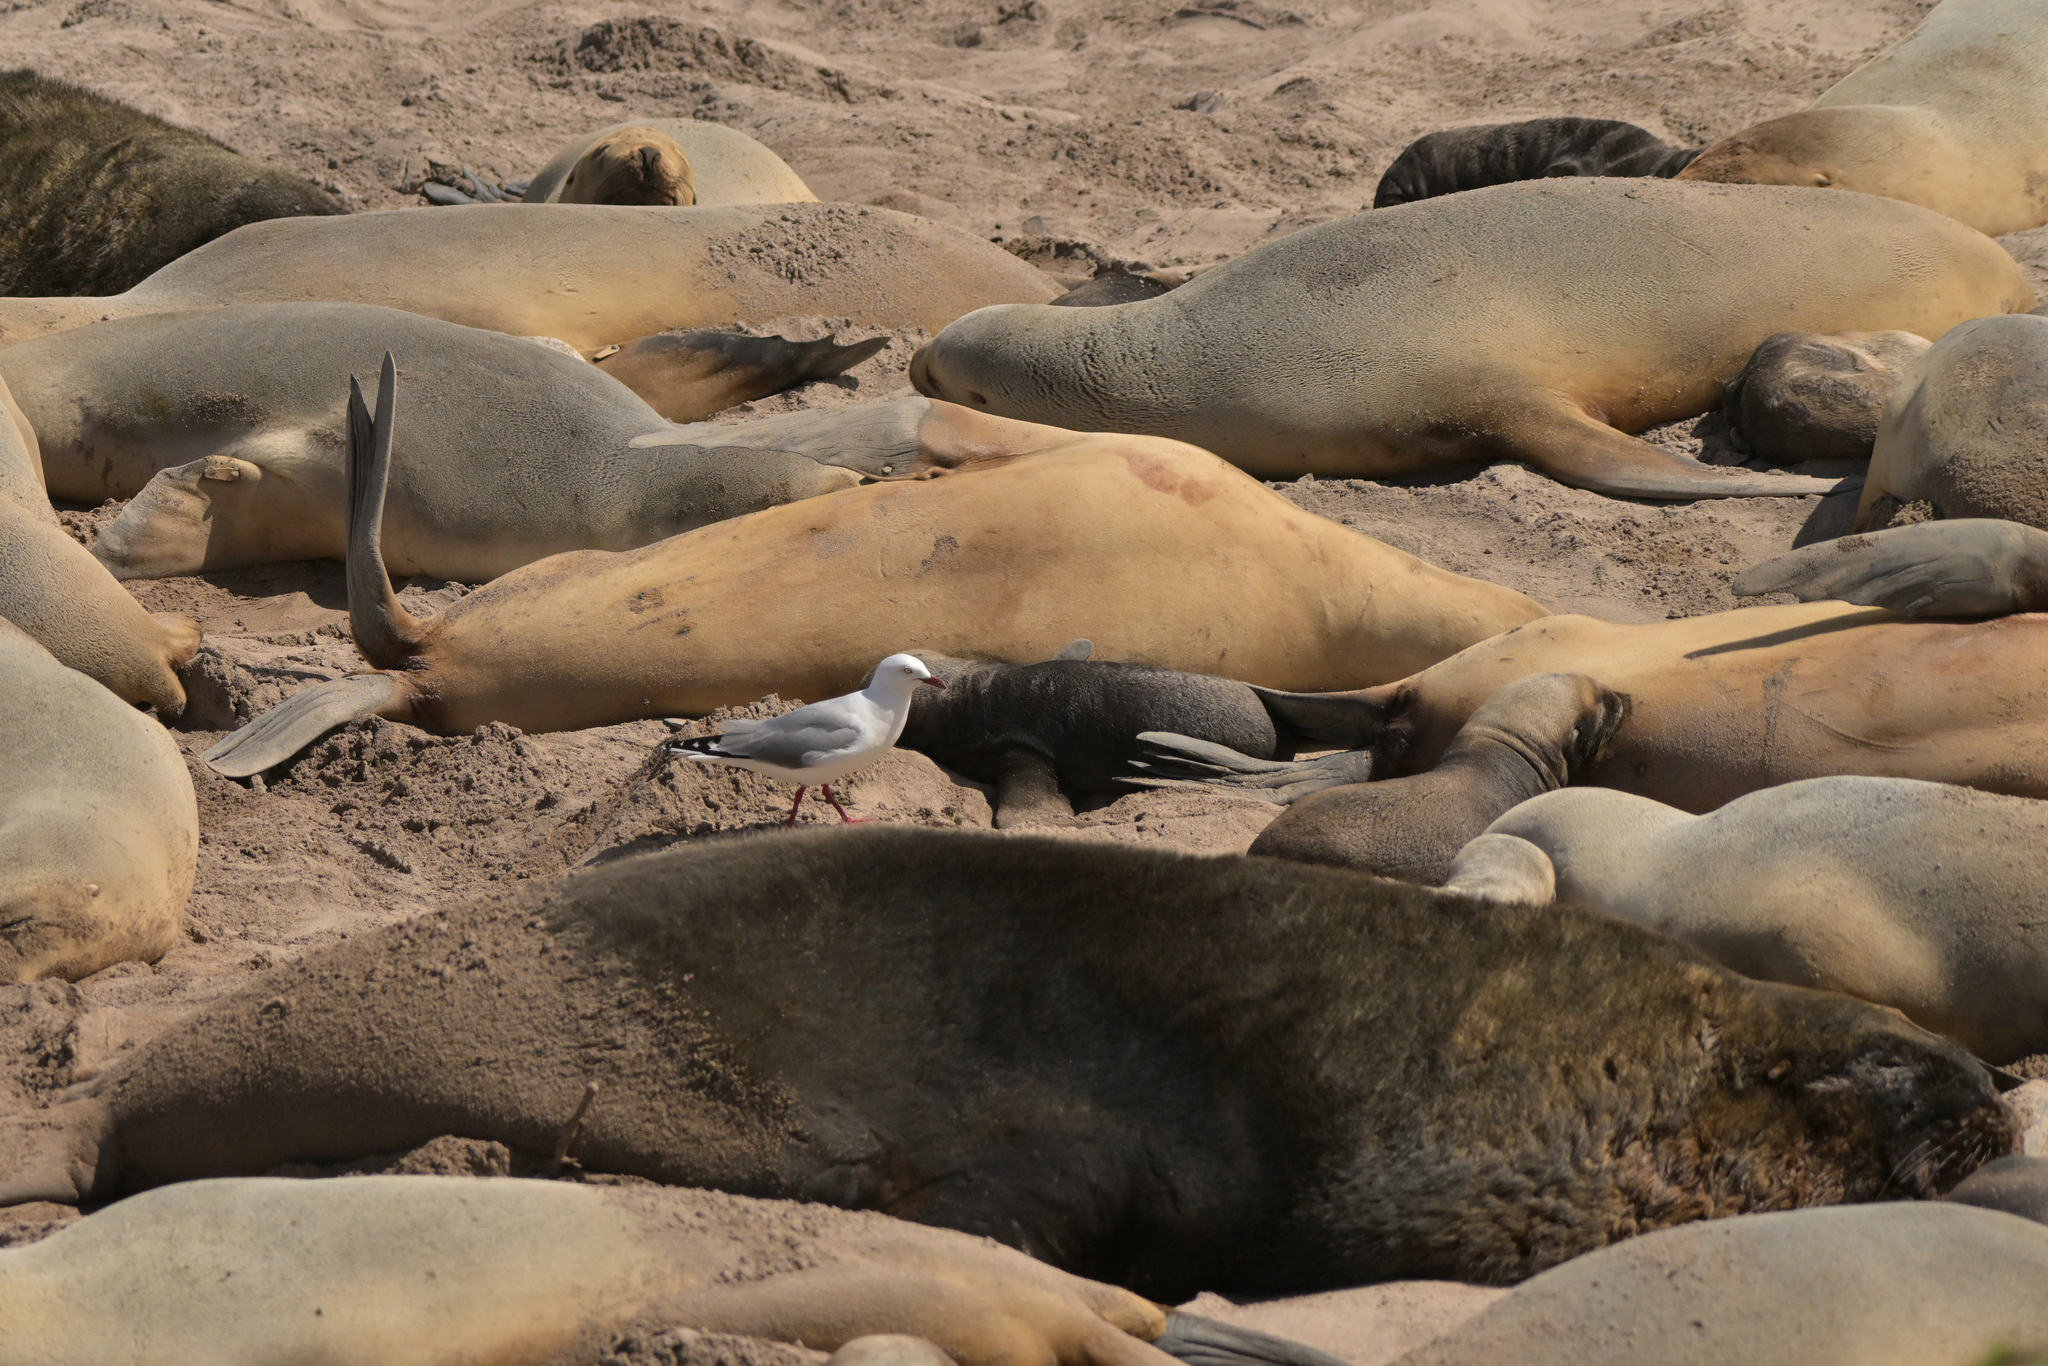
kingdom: Animalia
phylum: Chordata
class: Aves
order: Charadriiformes
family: Laridae
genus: Chroicocephalus
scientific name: Chroicocephalus novaehollandiae
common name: Silver gull
